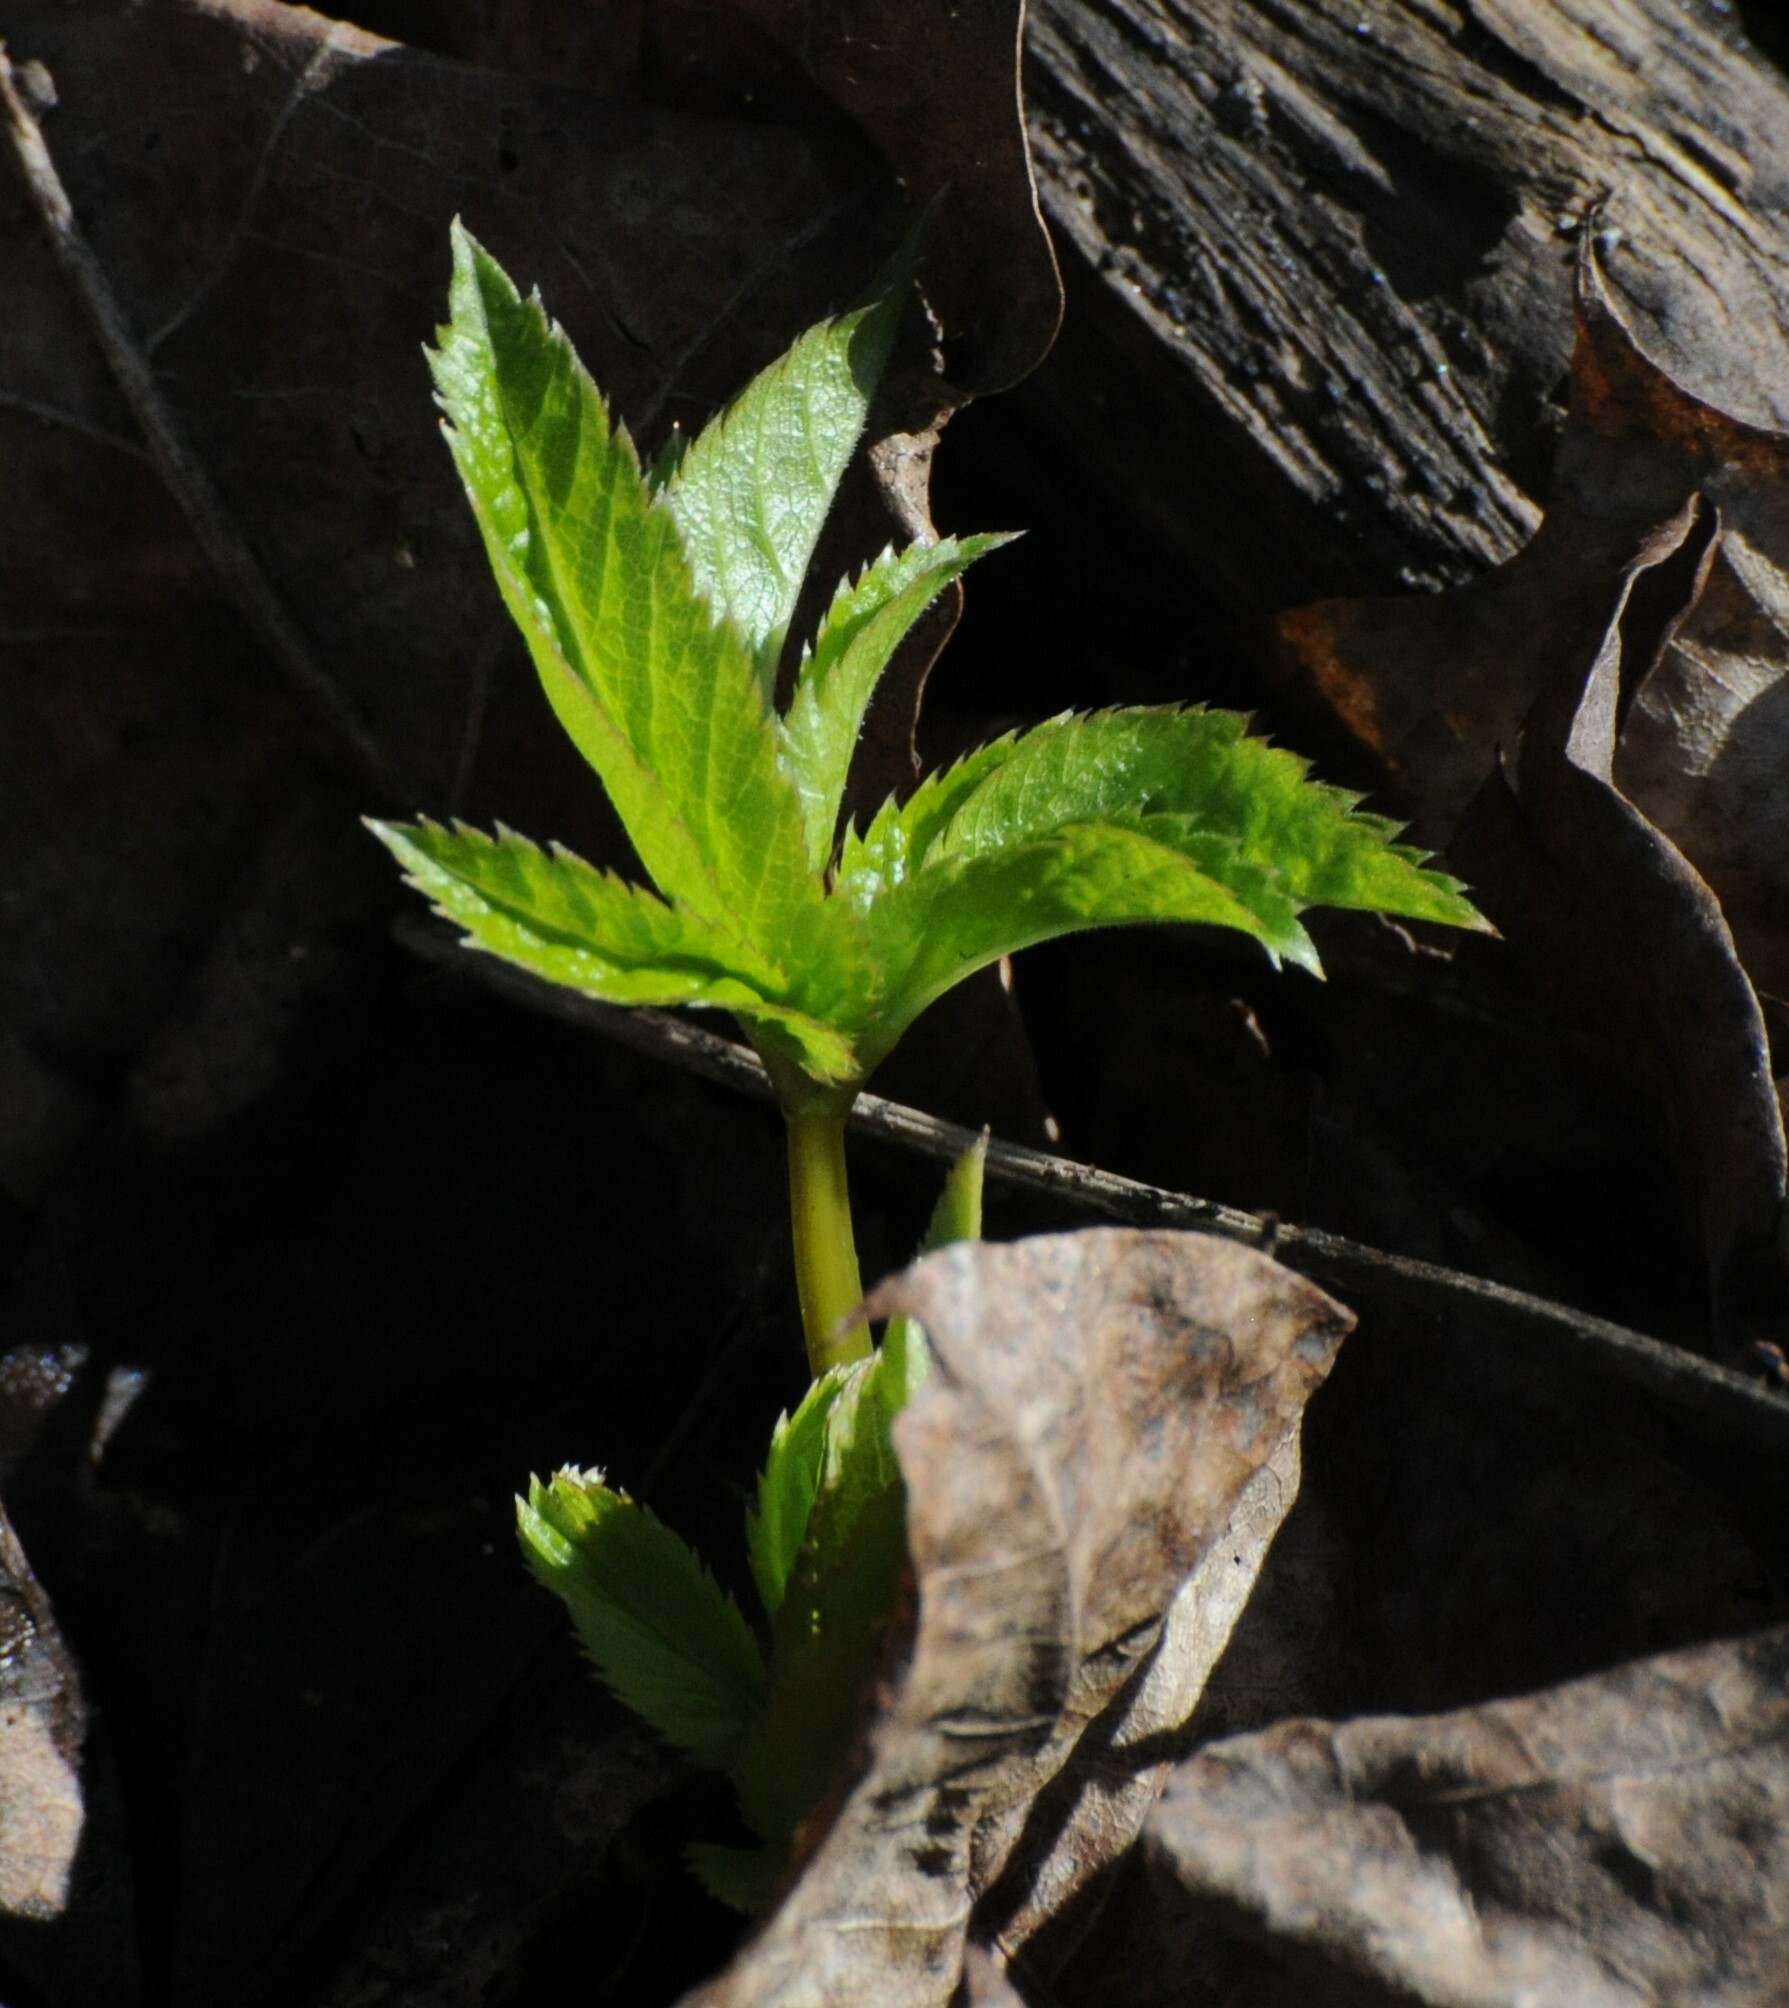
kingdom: Plantae
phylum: Tracheophyta
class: Magnoliopsida
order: Apiales
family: Apiaceae
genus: Aegopodium
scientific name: Aegopodium podagraria
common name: Ground-elder
